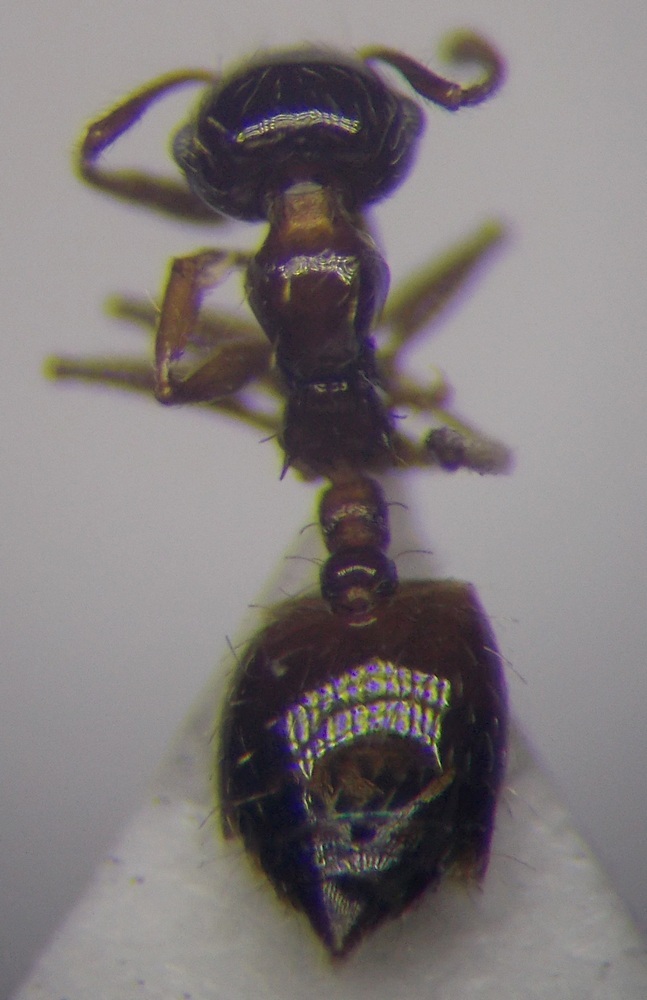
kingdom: Animalia
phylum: Arthropoda
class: Insecta
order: Hymenoptera
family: Formicidae
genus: Crematogaster
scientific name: Crematogaster sordidula
